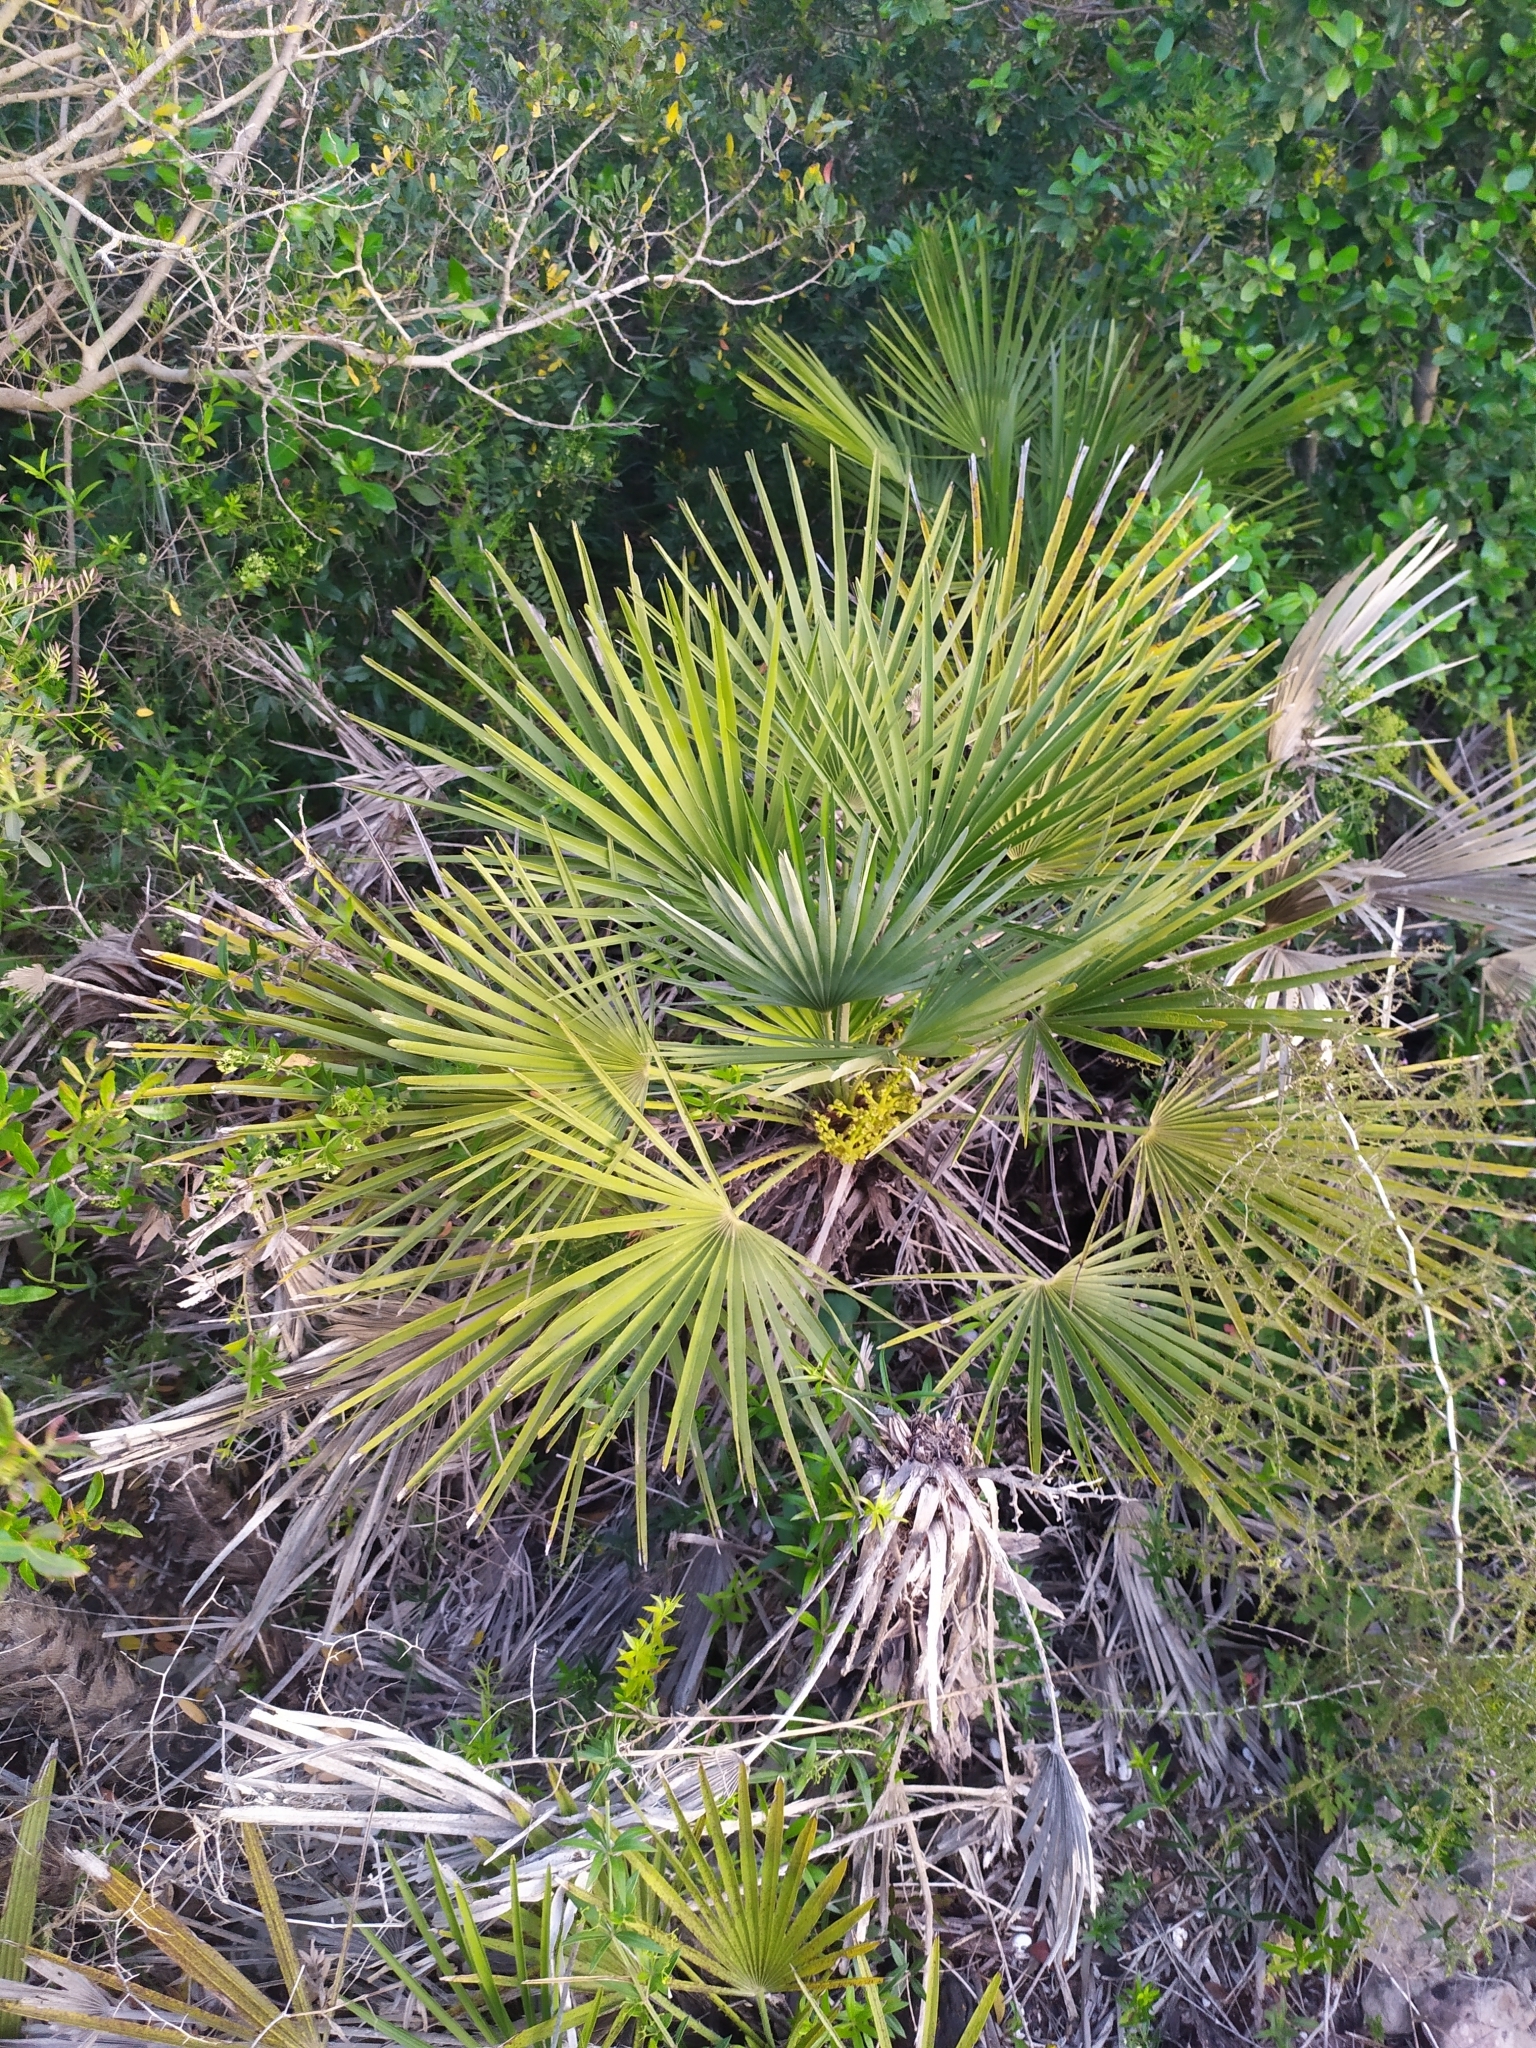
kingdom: Plantae
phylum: Tracheophyta
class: Liliopsida
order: Arecales
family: Arecaceae
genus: Chamaerops
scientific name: Chamaerops humilis
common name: Dwarf fan palm
